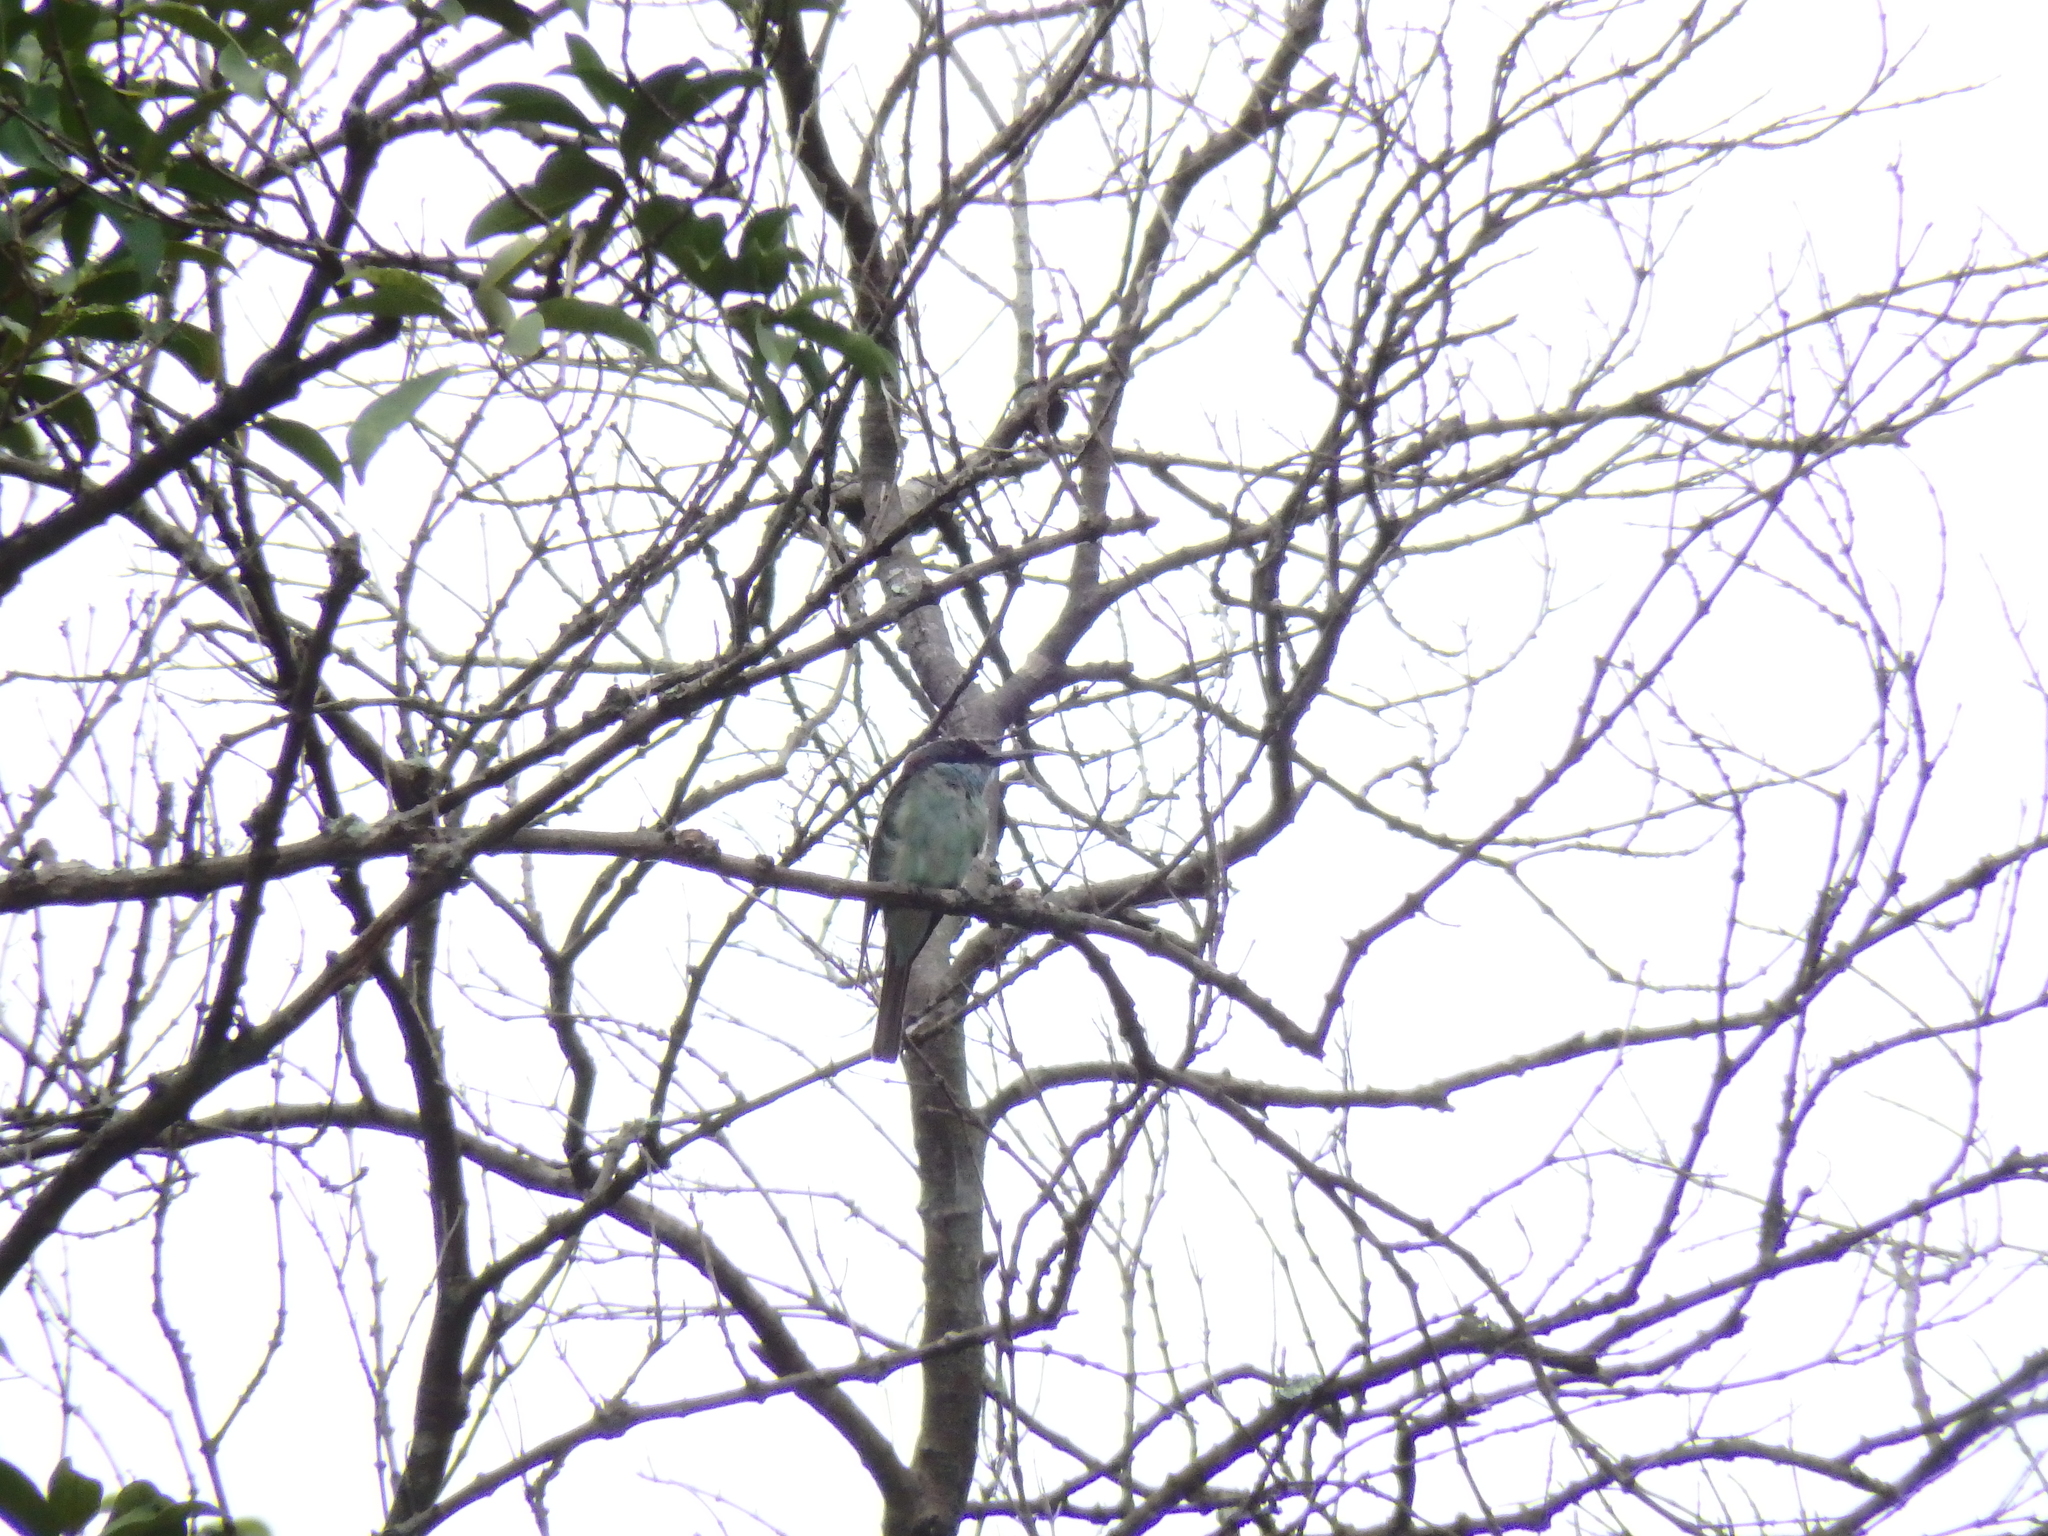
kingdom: Animalia
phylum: Chordata
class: Aves
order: Coraciiformes
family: Meropidae
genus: Merops
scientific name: Merops viridis
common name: Blue-throated bee-eater
